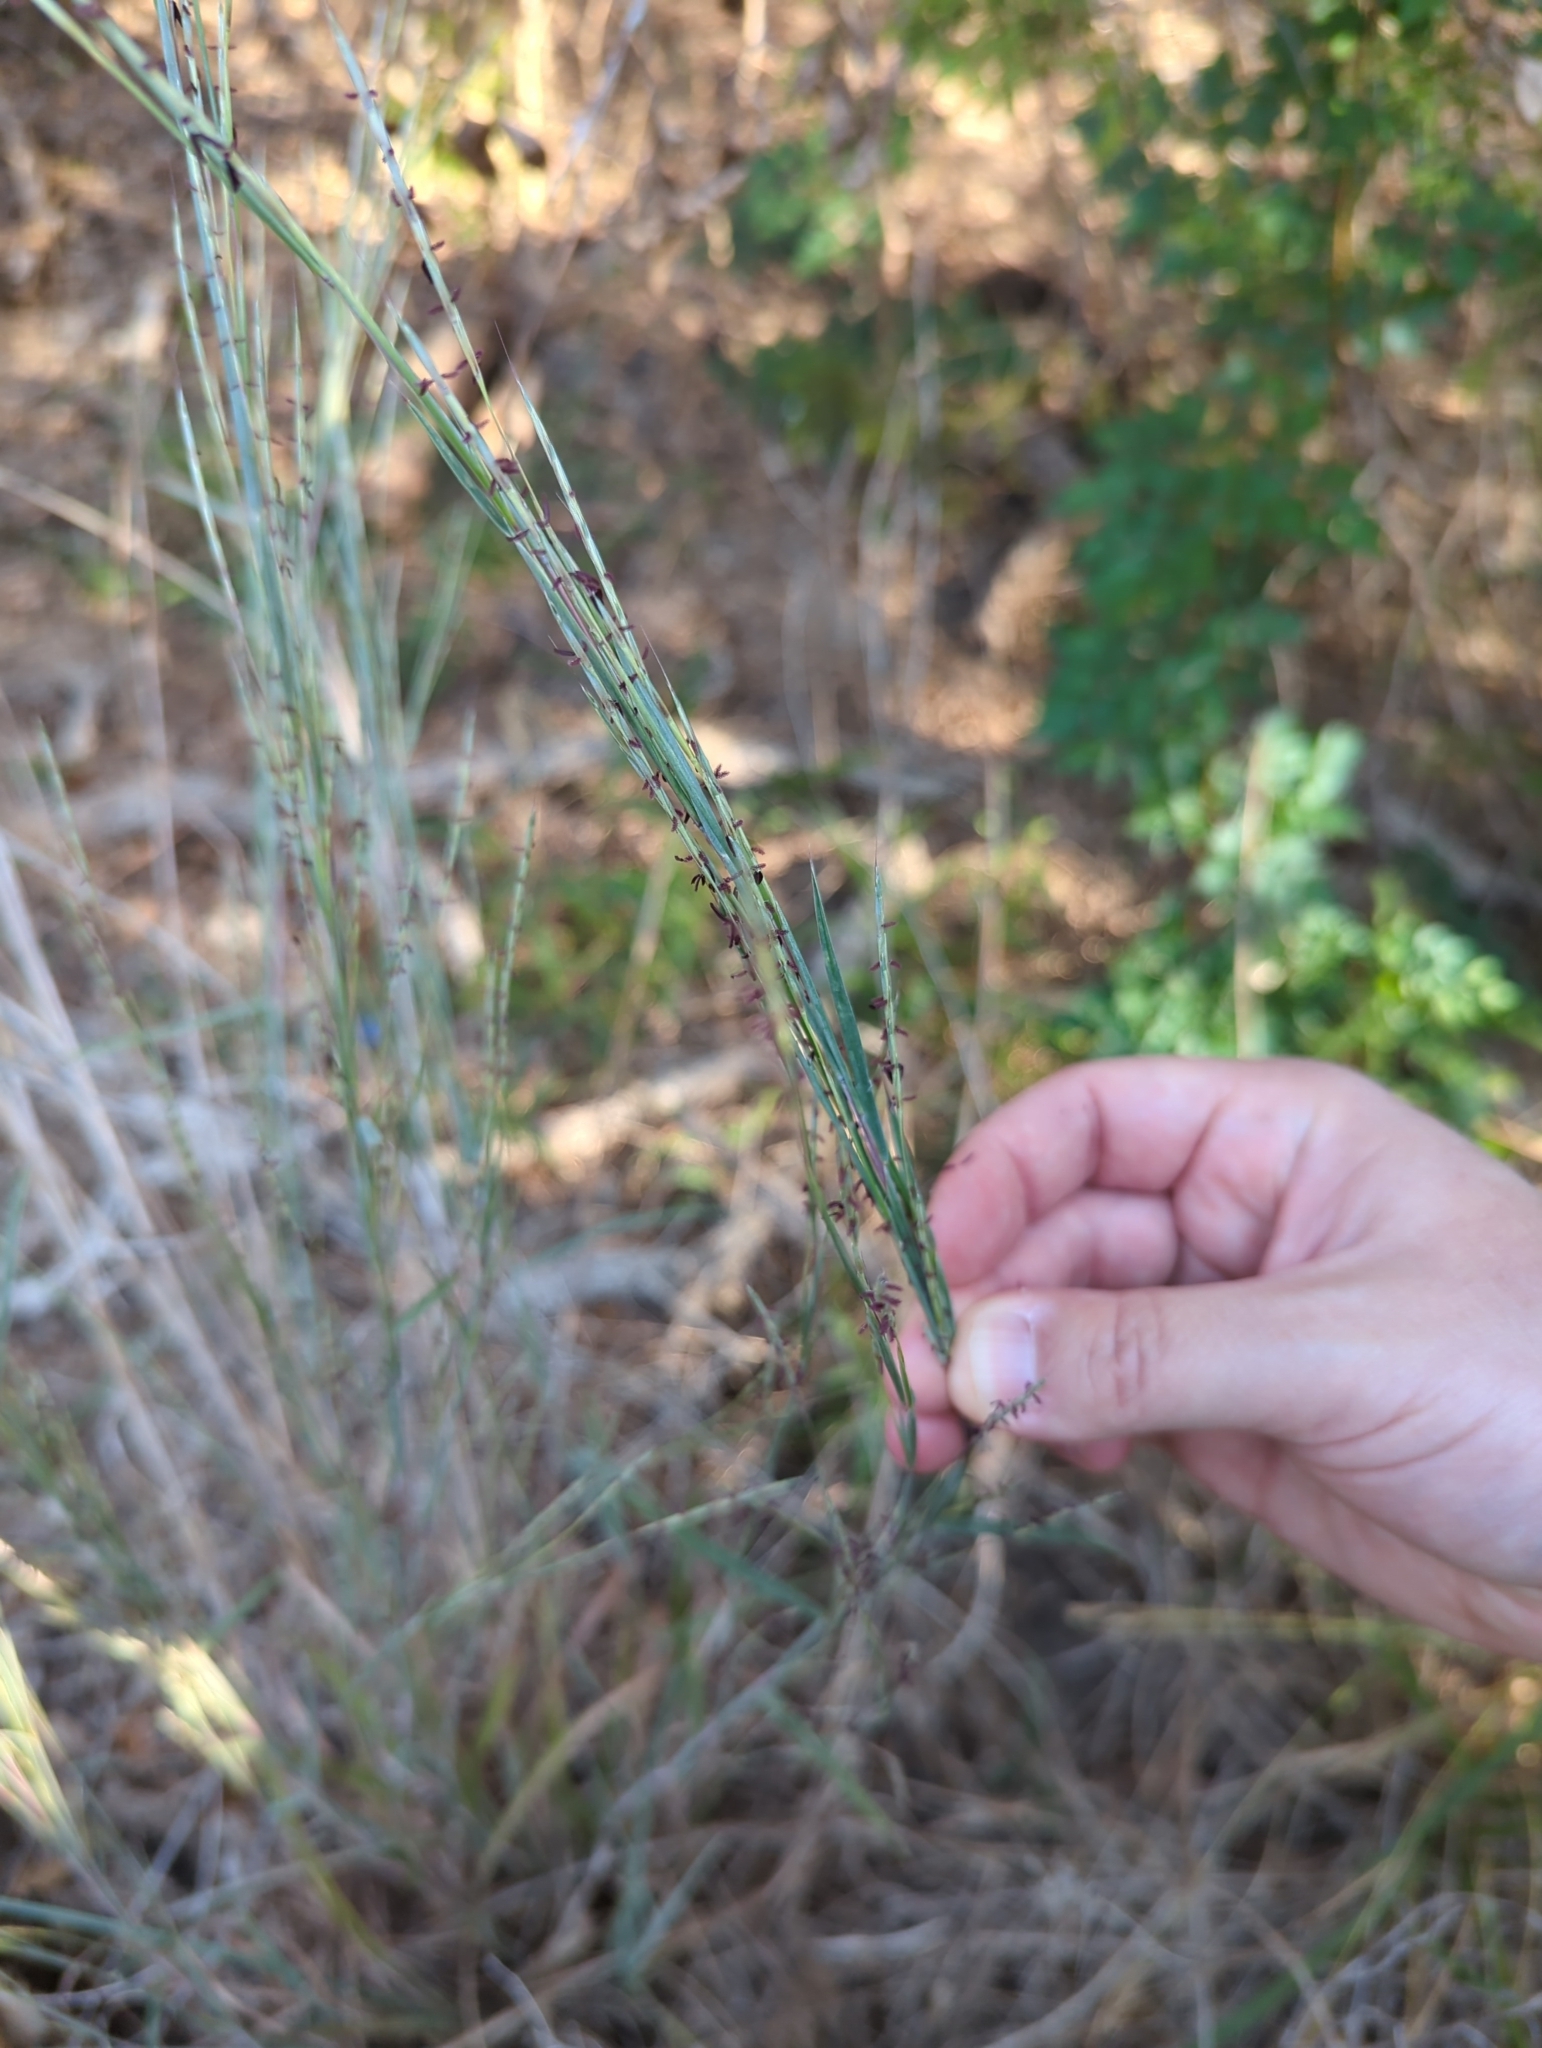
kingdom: Plantae
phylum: Tracheophyta
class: Liliopsida
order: Poales
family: Poaceae
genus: Schizachyrium
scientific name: Schizachyrium scoparium
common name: Little bluestem
